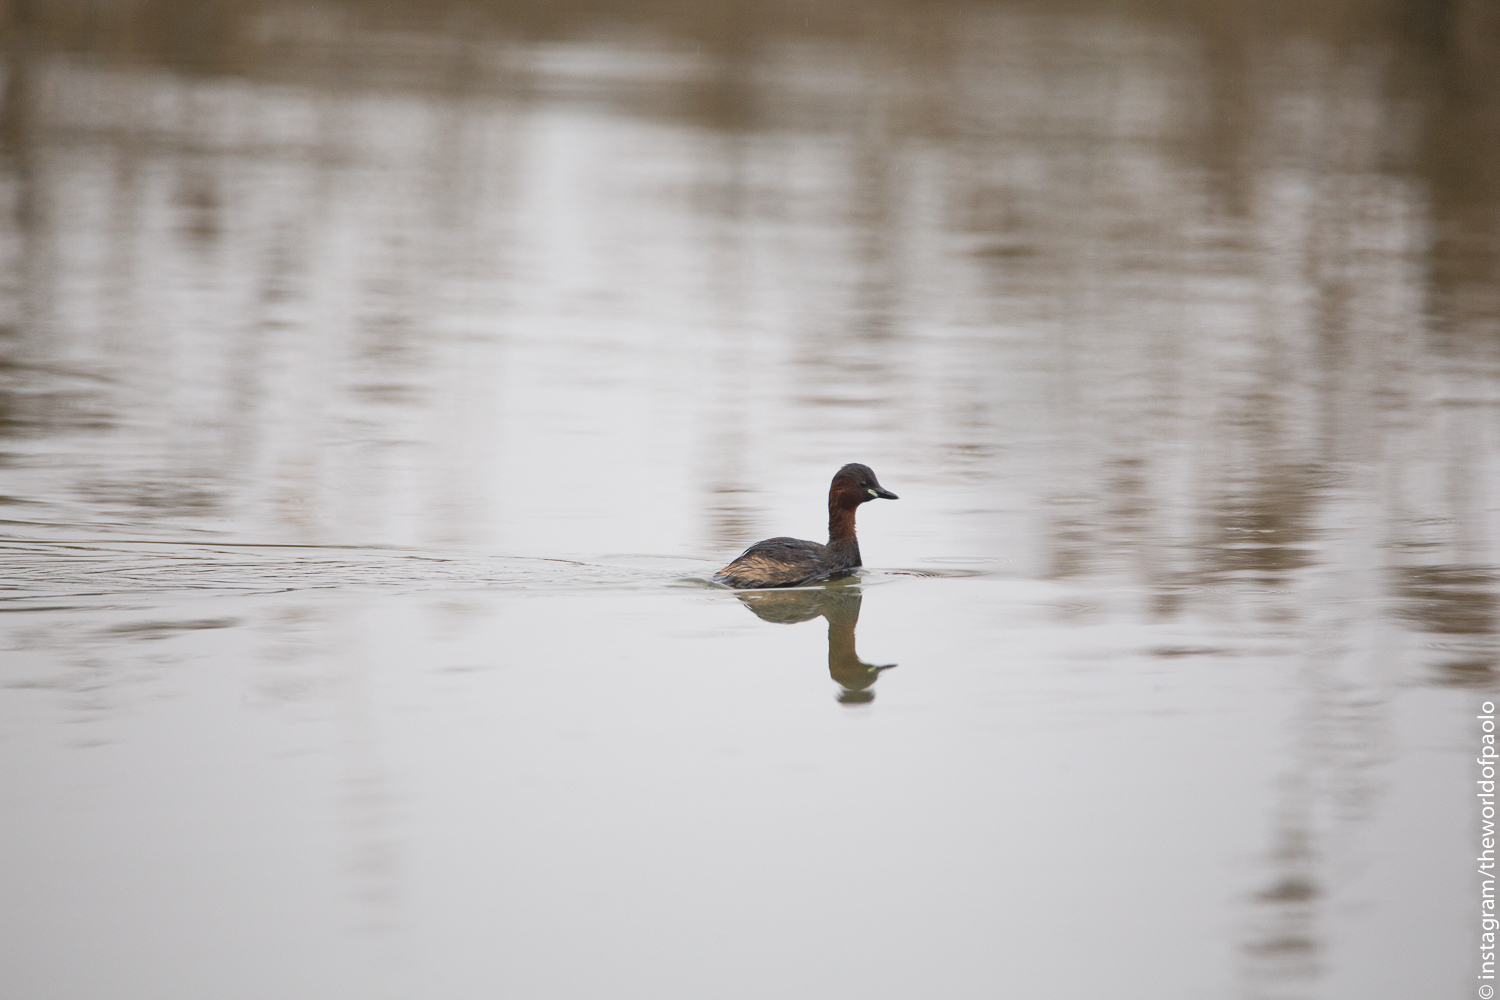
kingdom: Animalia
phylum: Chordata
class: Aves
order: Podicipediformes
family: Podicipedidae
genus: Tachybaptus
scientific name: Tachybaptus ruficollis
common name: Little grebe
